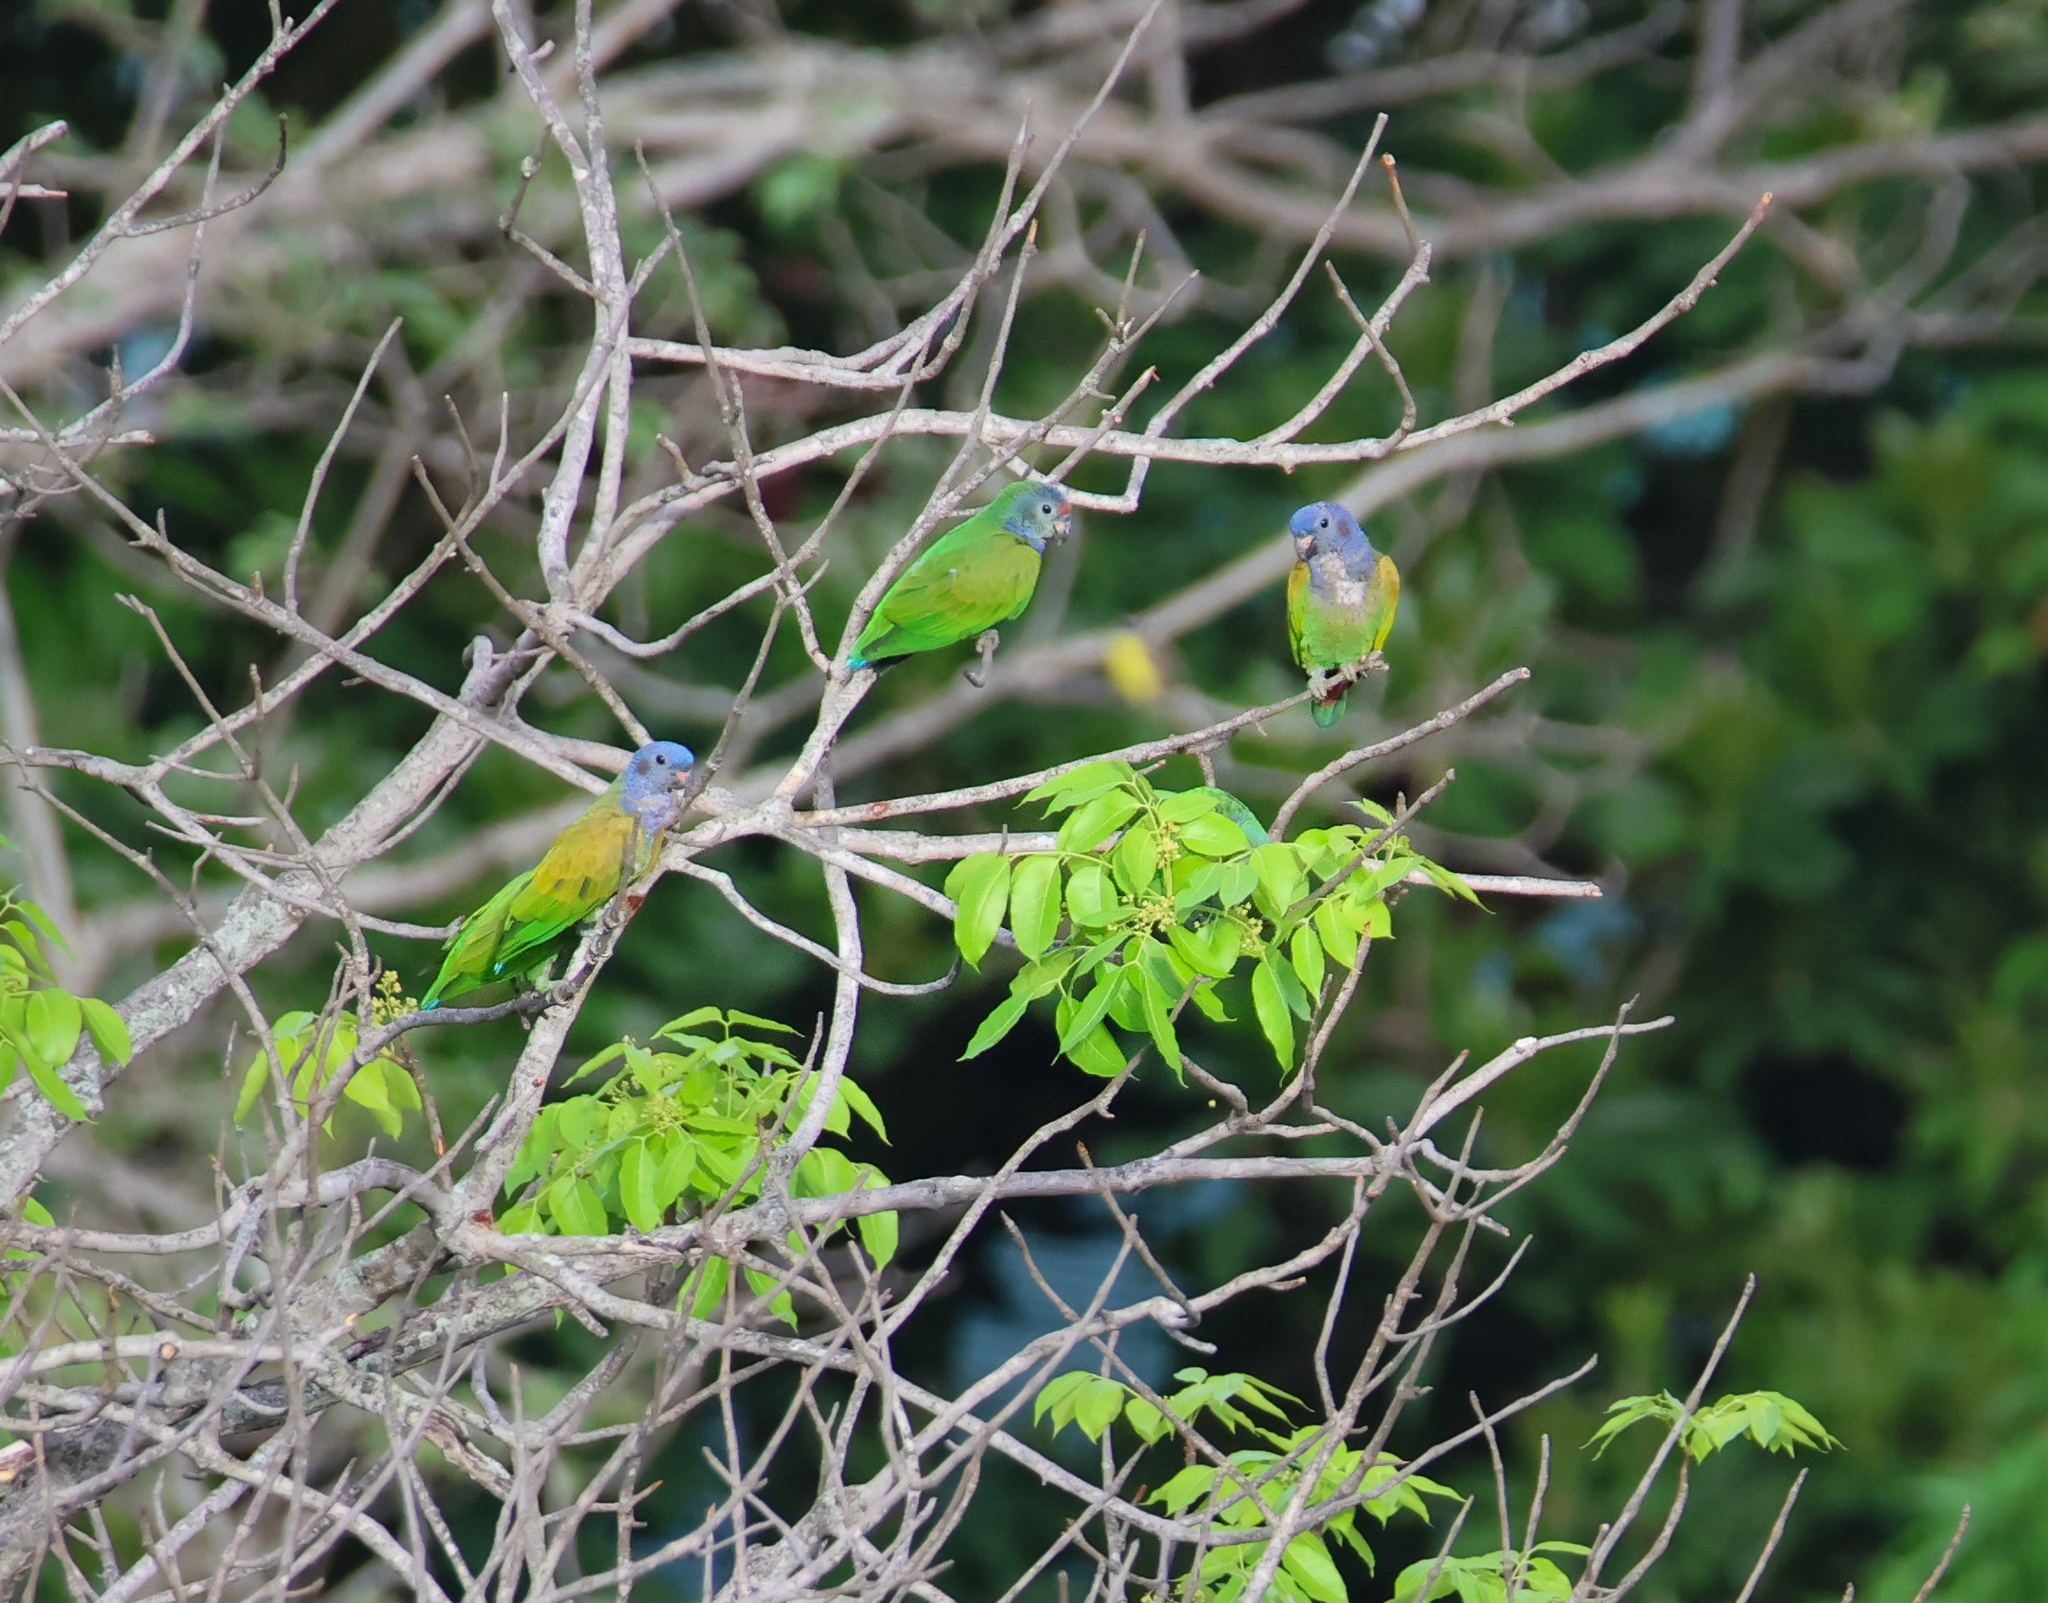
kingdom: Animalia
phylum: Chordata
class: Aves
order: Psittaciformes
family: Psittacidae
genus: Pionus
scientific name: Pionus menstruus
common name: Blue-headed parrot
